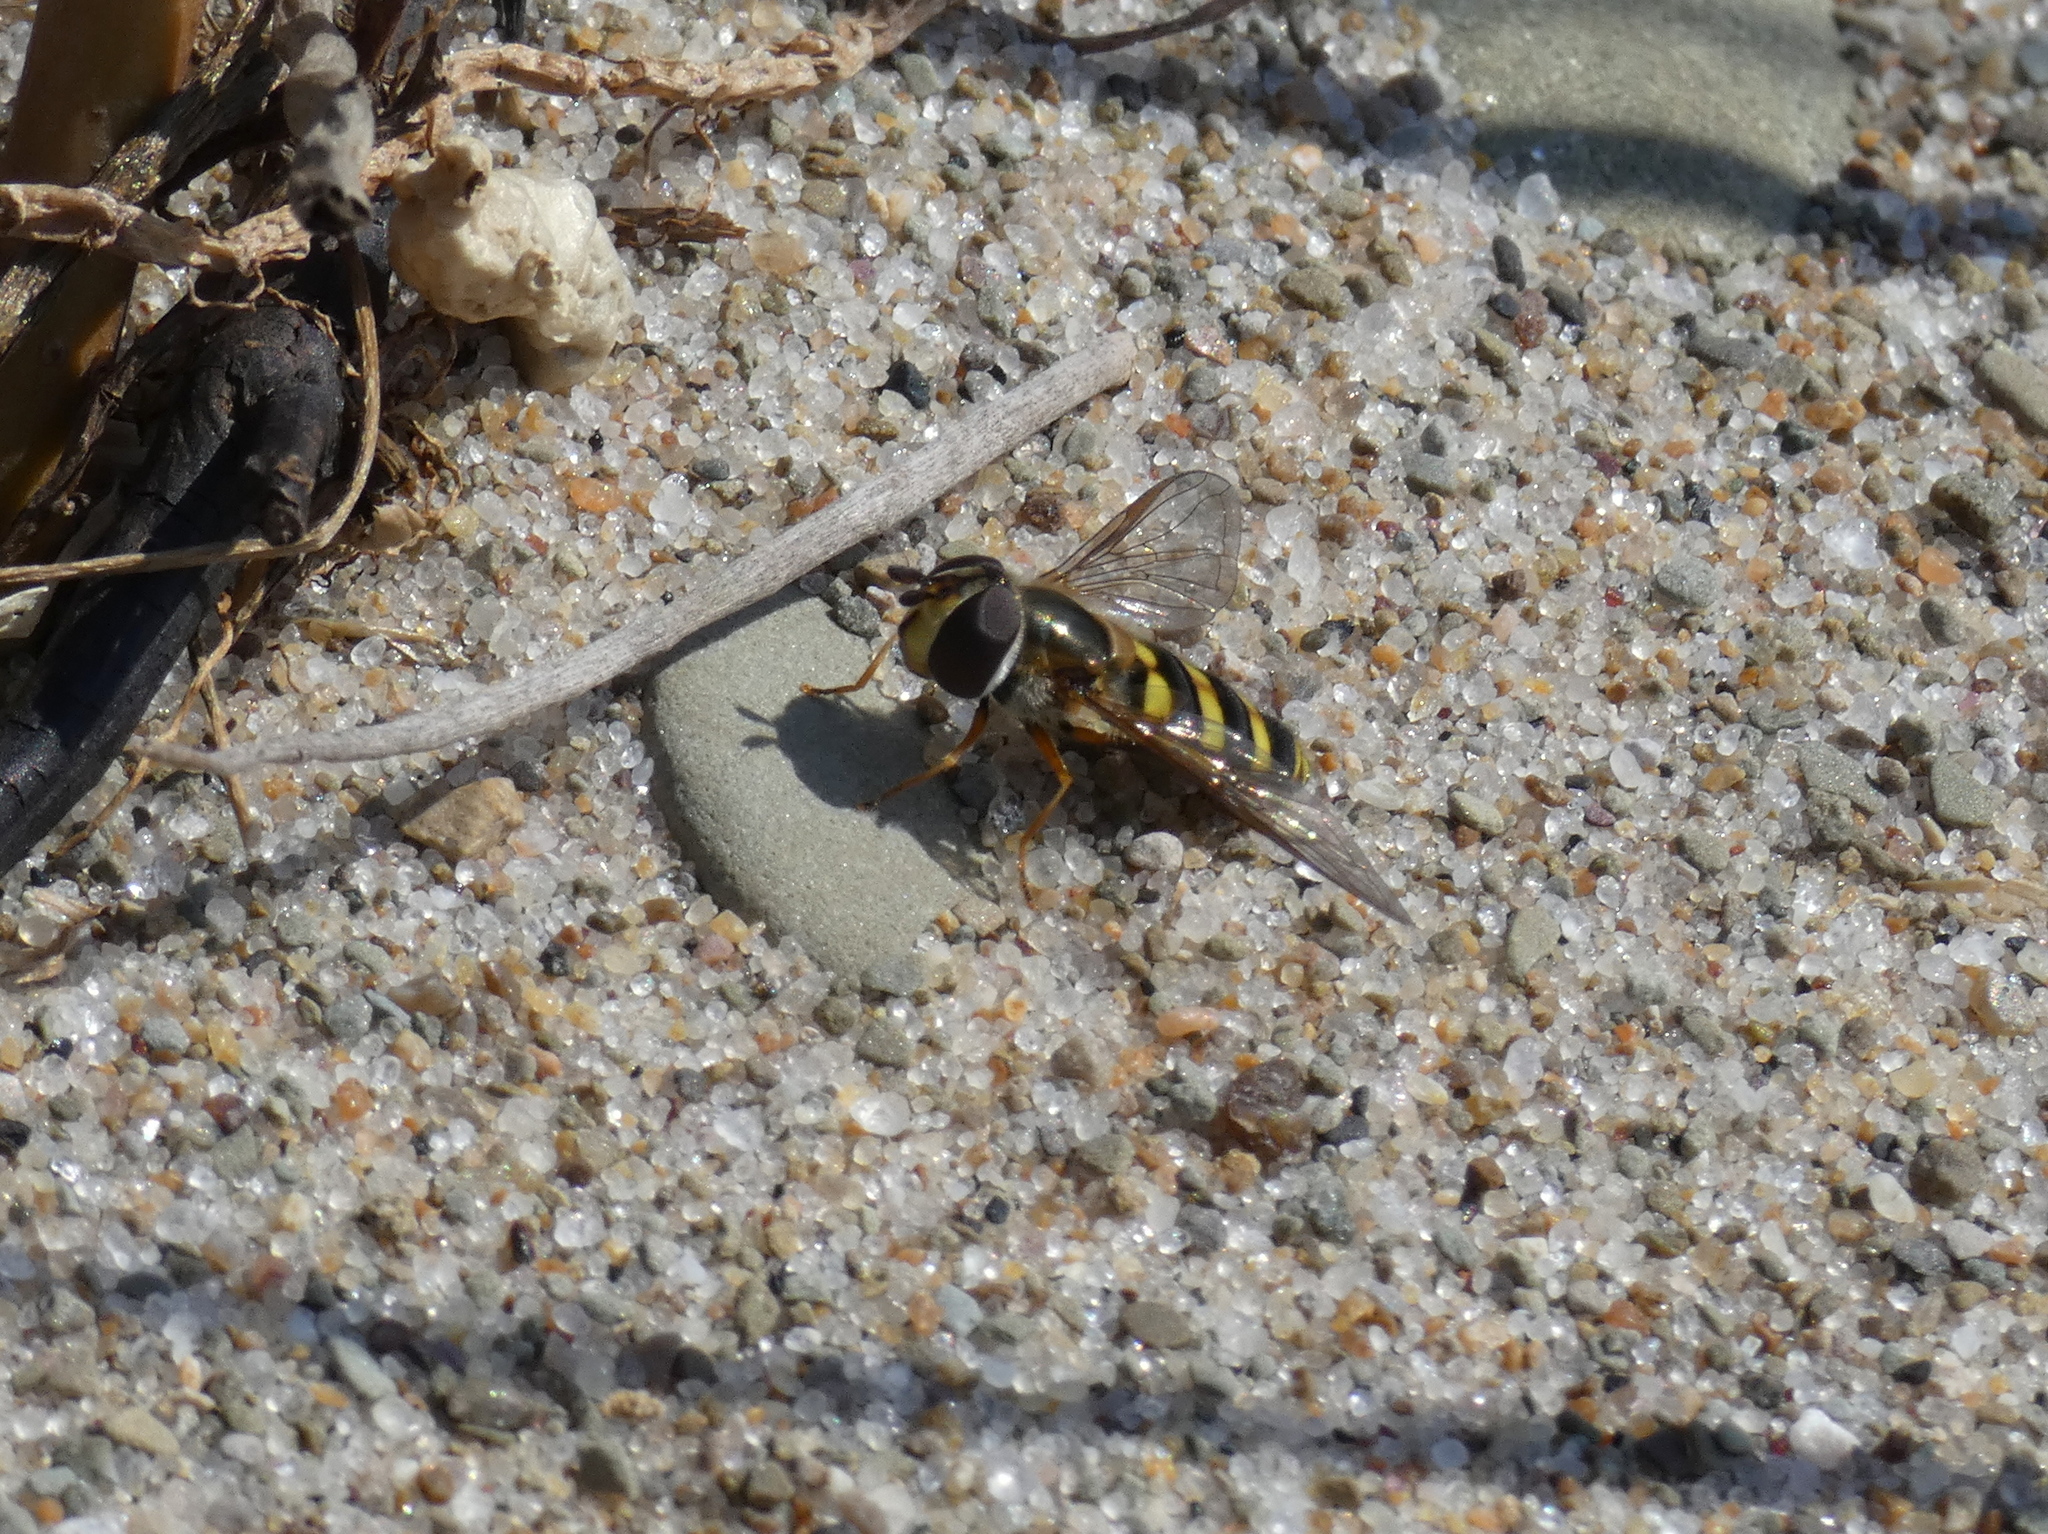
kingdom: Animalia
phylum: Arthropoda
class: Insecta
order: Diptera
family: Syrphidae
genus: Eupeodes
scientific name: Eupeodes
